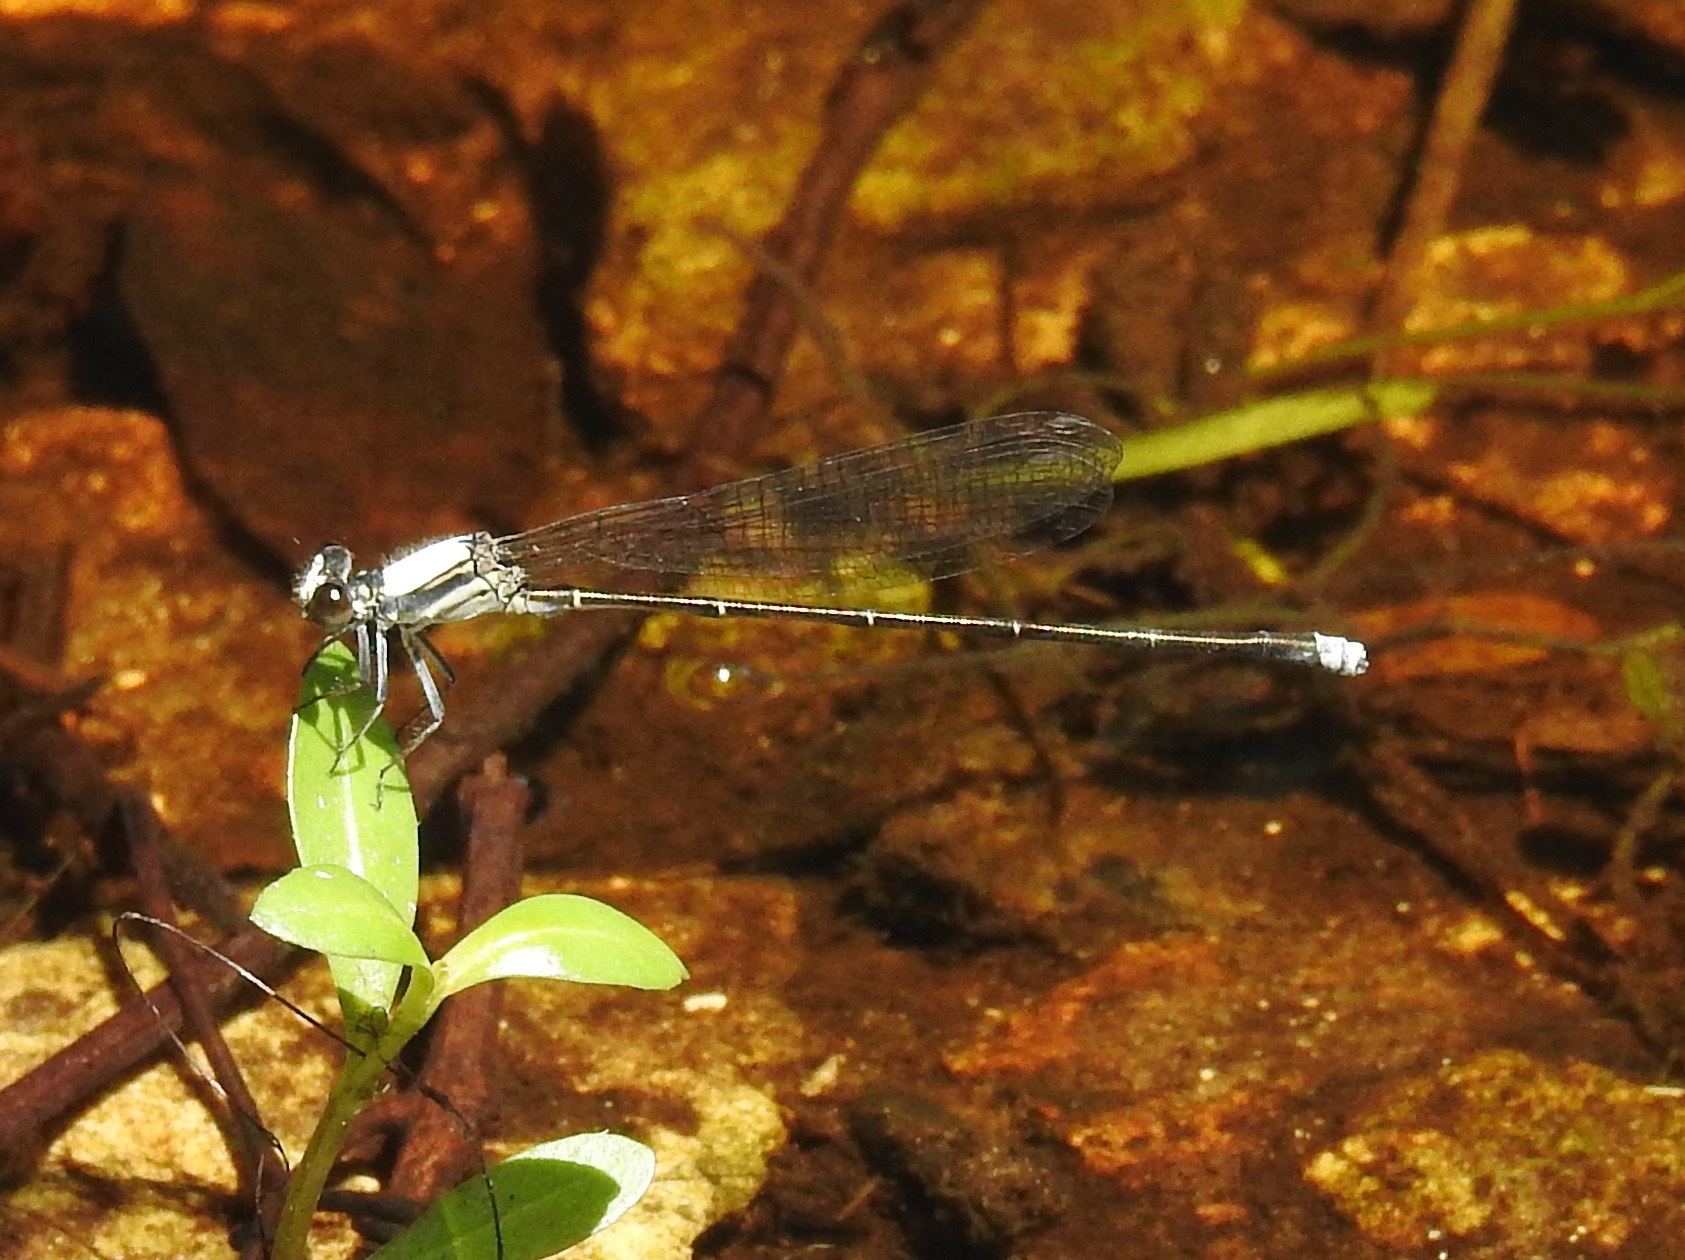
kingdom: Animalia
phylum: Arthropoda
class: Insecta
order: Odonata
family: Coenagrionidae
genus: Argia
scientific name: Argia moesta
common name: Powdered dancer
